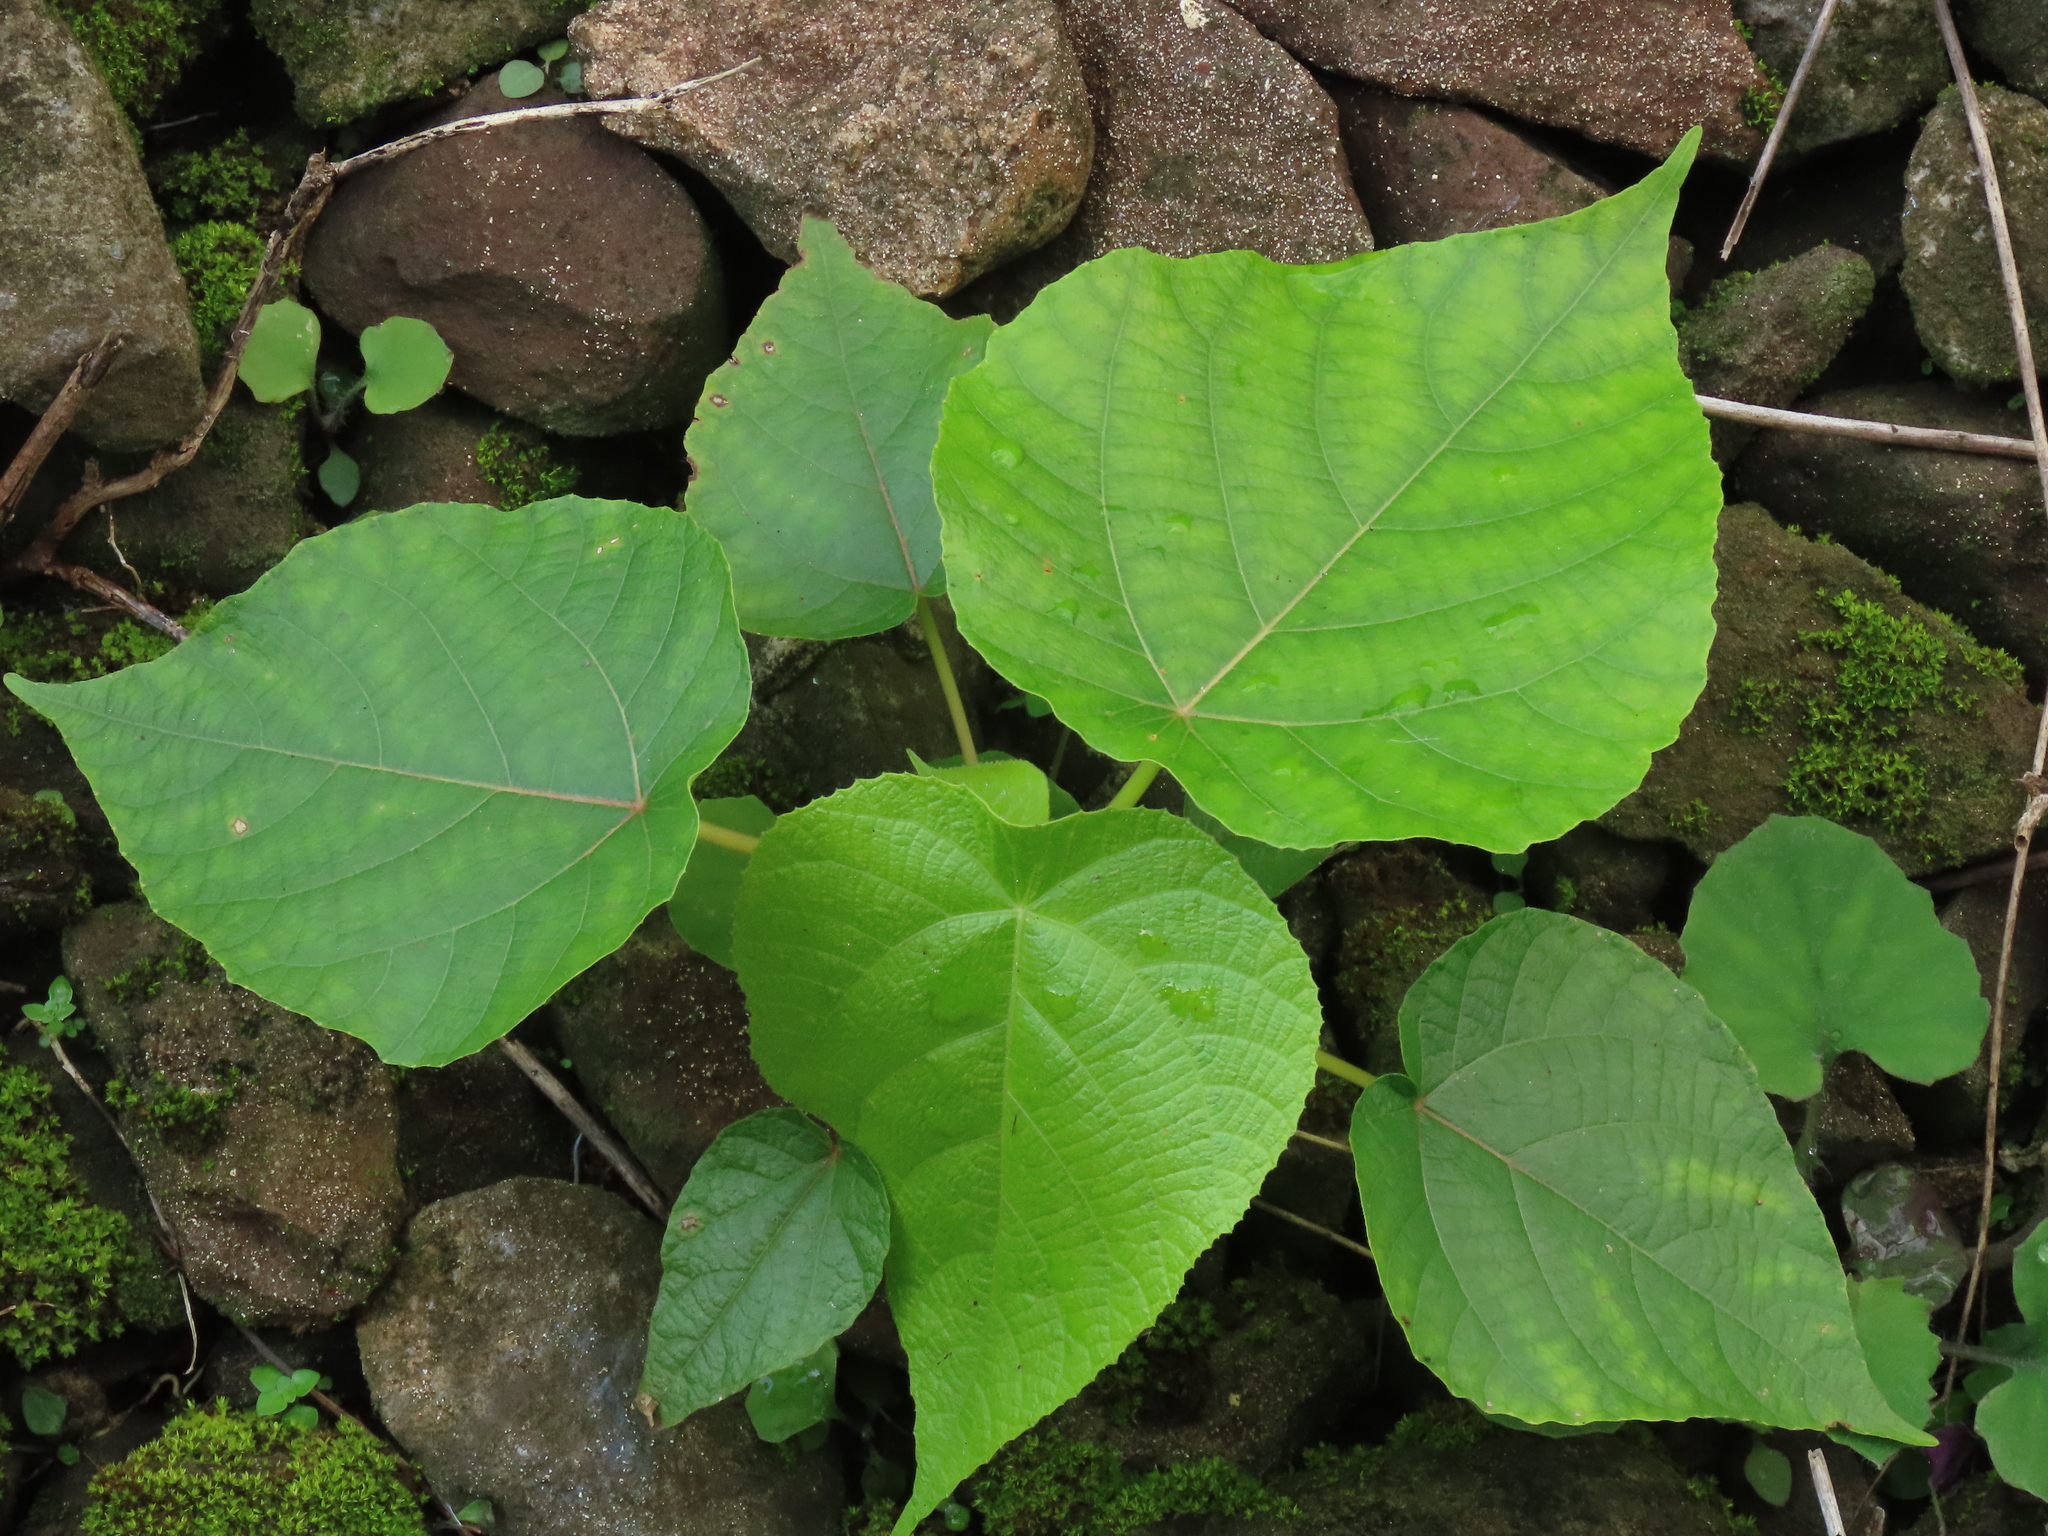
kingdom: Plantae
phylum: Tracheophyta
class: Magnoliopsida
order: Malpighiales
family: Euphorbiaceae
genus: Macaranga
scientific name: Macaranga tanarius
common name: Parasol leaf tree
